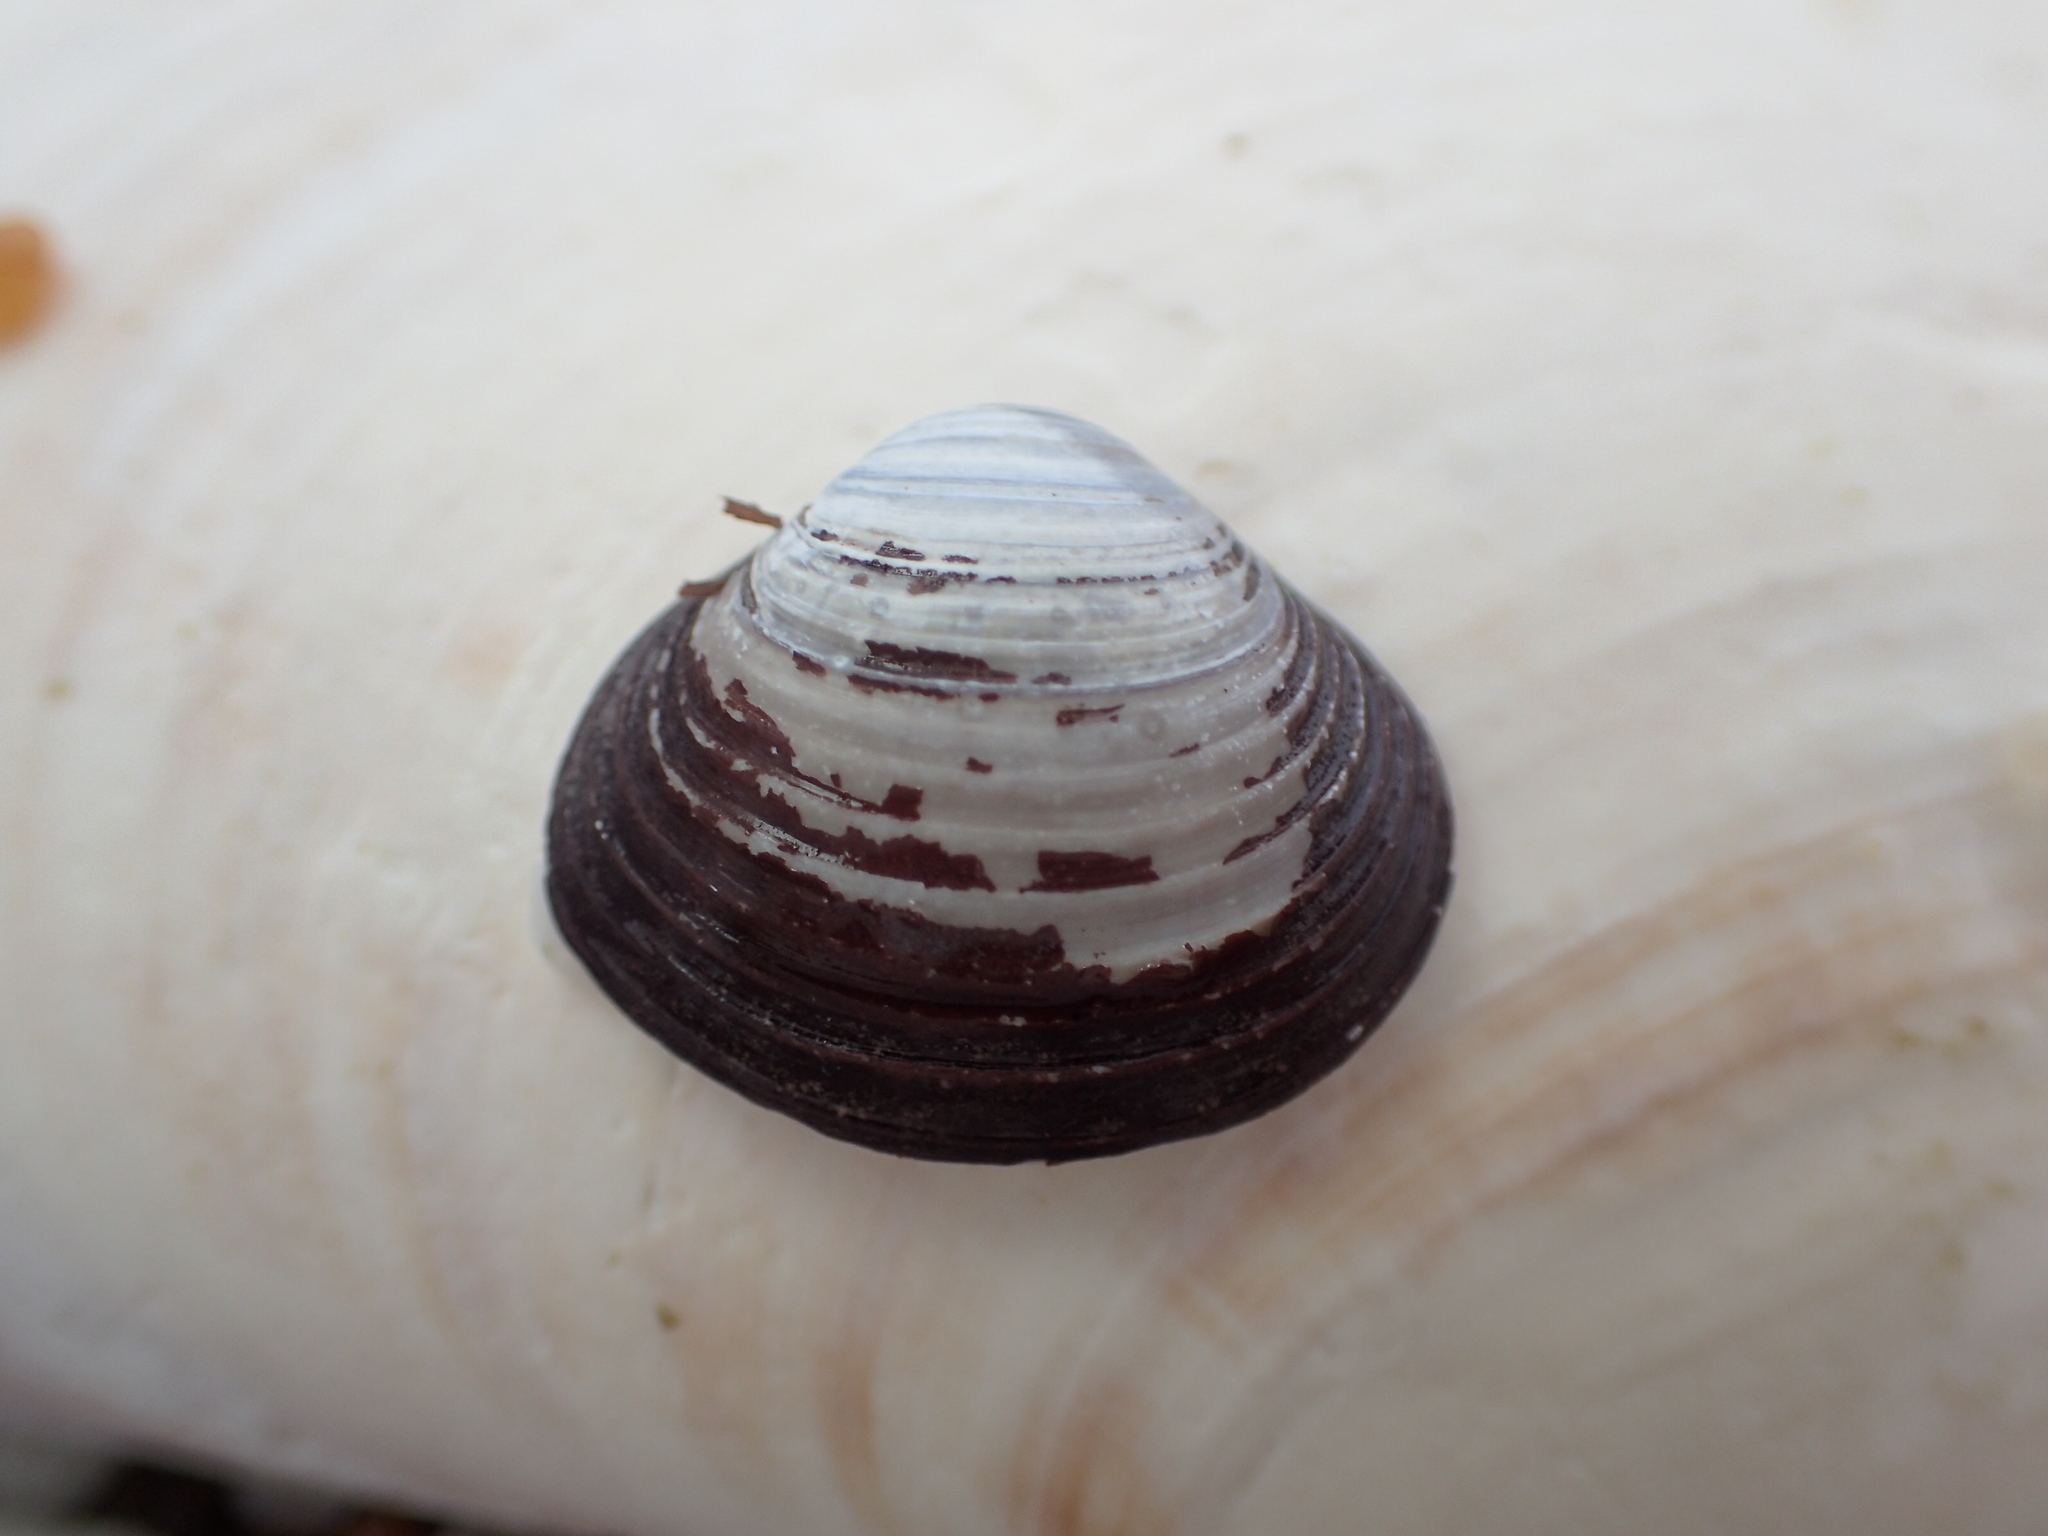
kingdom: Animalia
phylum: Mollusca
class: Bivalvia
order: Venerida
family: Cyrenidae
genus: Corbicula
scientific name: Corbicula fluminea
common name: Asian clam
